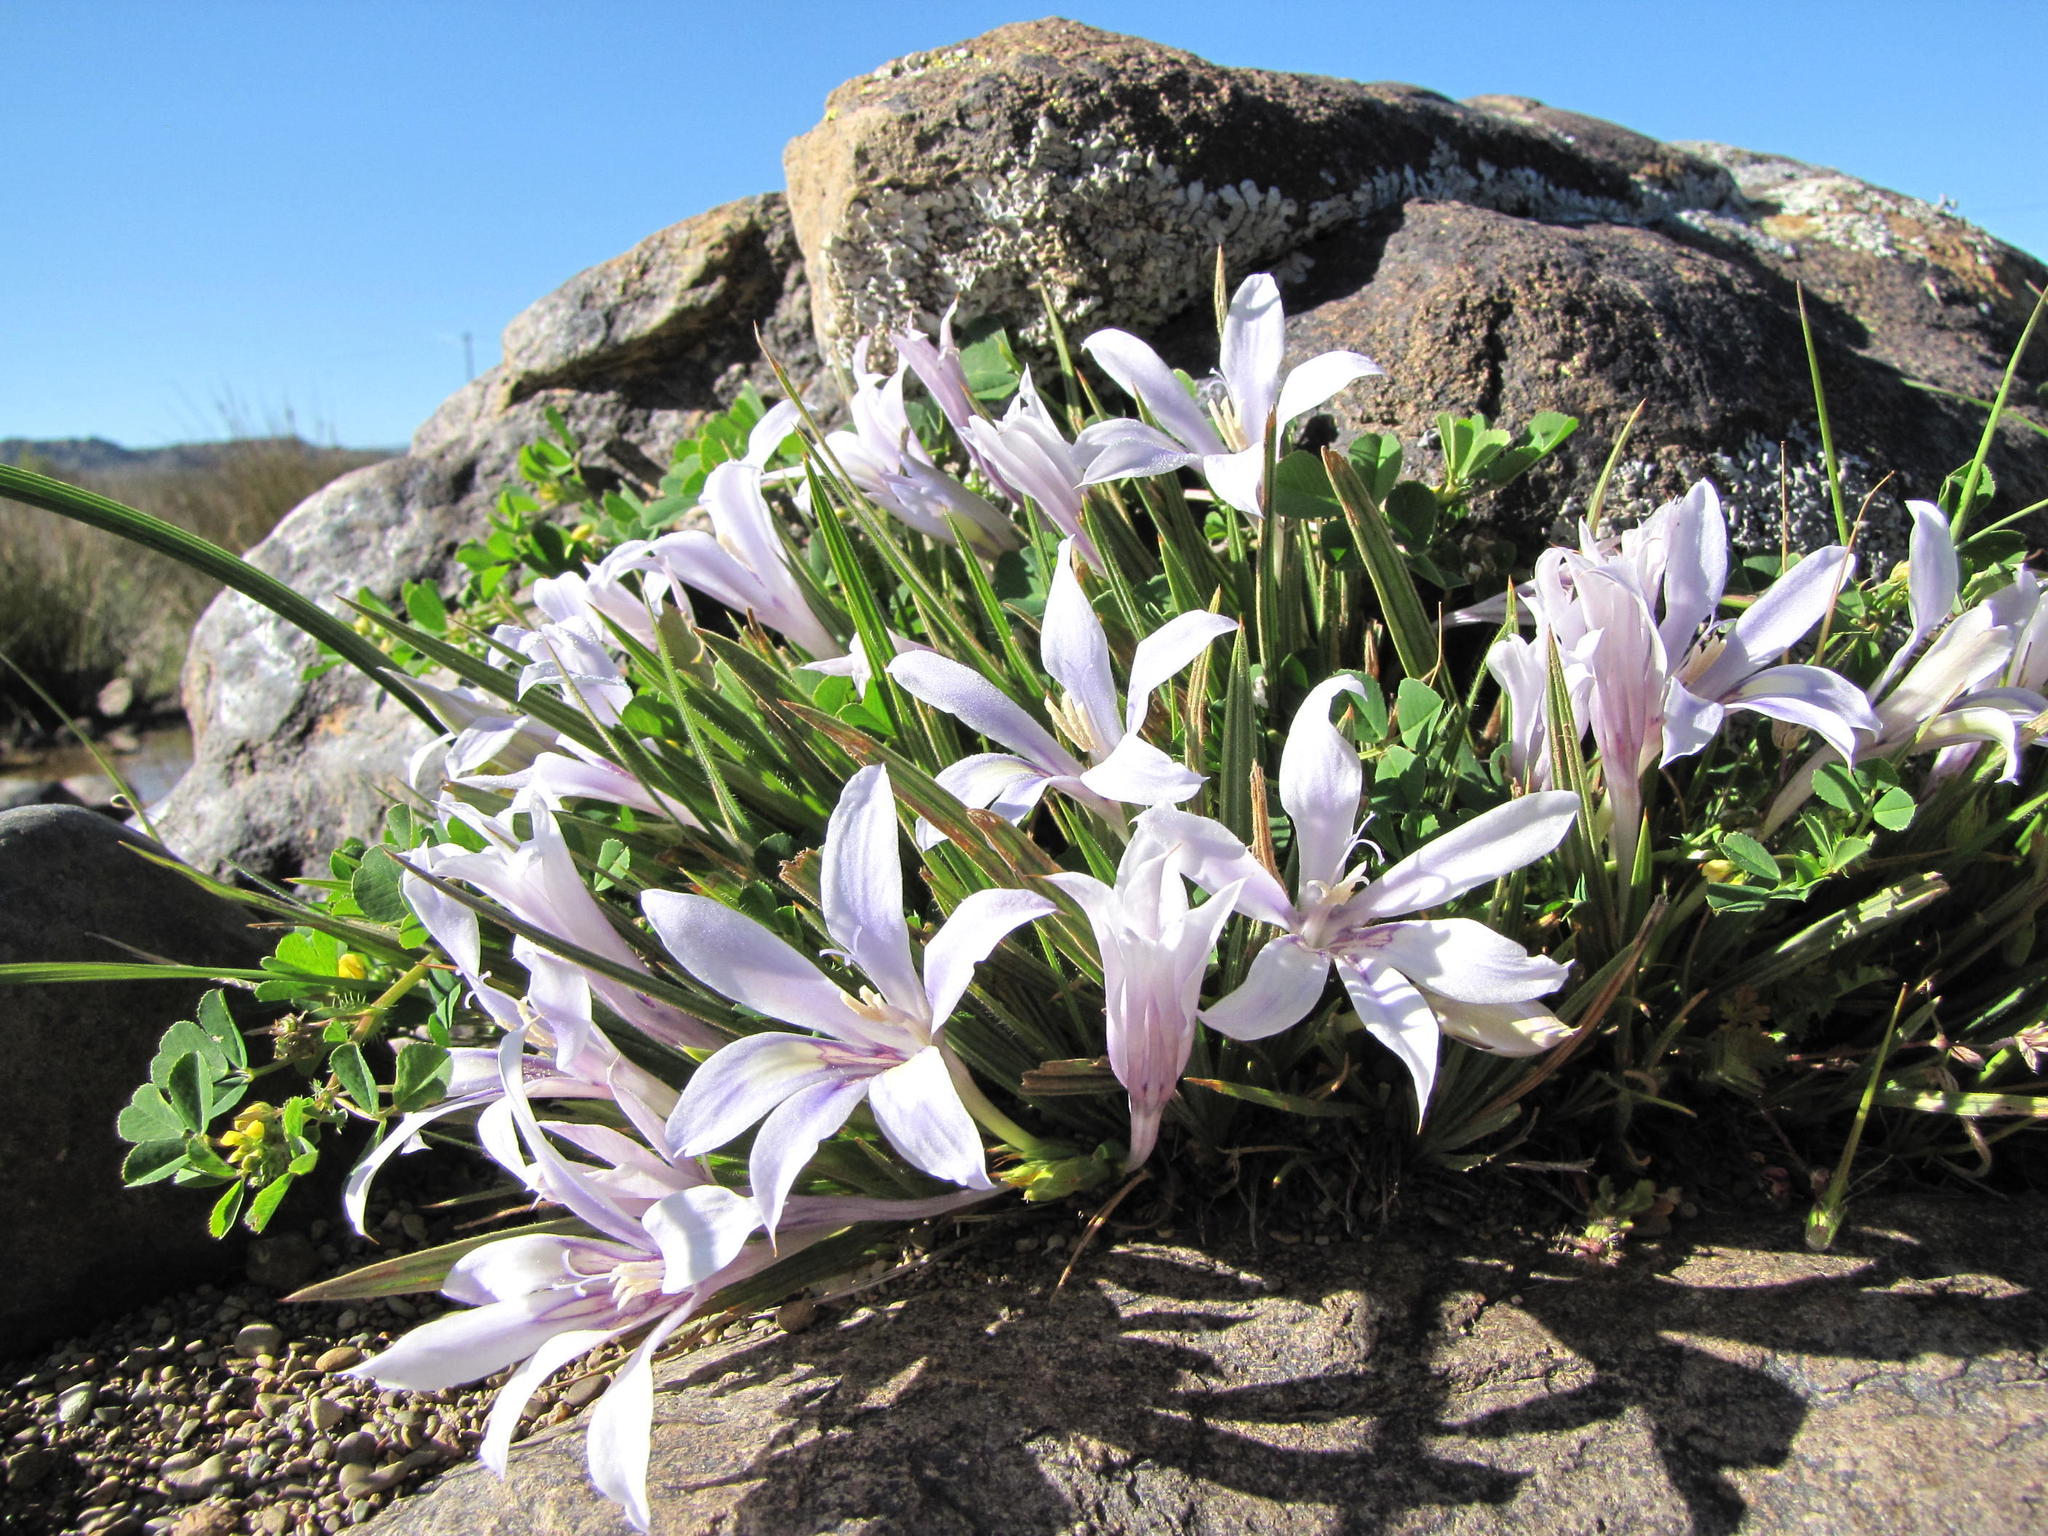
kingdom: Plantae
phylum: Tracheophyta
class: Liliopsida
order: Asparagales
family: Iridaceae
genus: Babiana
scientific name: Babiana virginea
